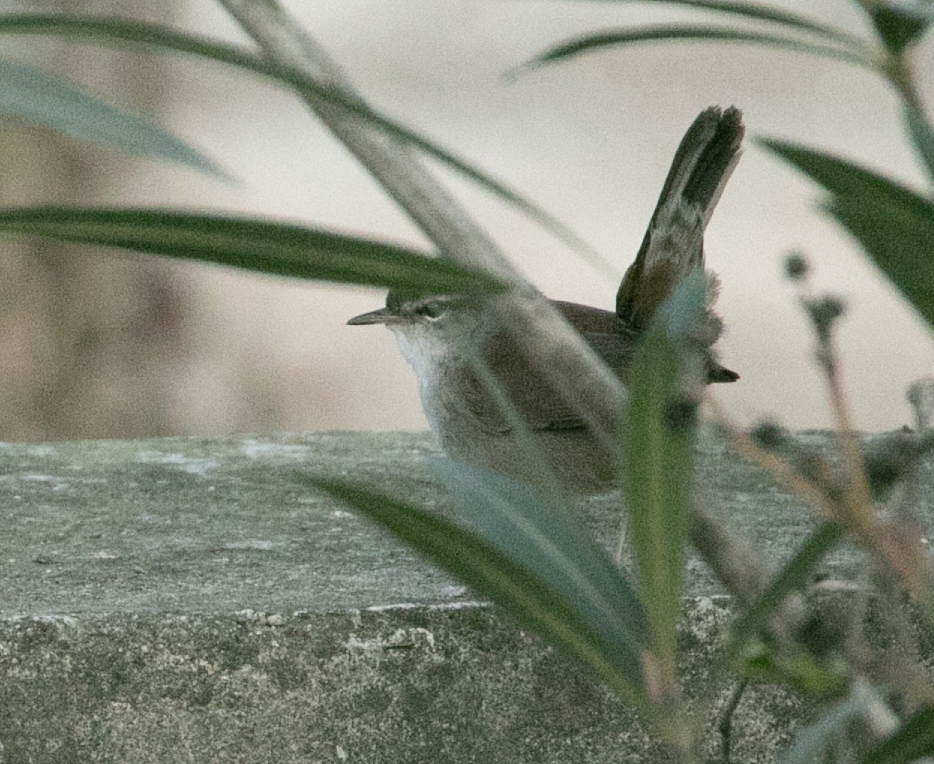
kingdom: Animalia
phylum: Chordata
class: Aves
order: Passeriformes
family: Cettiidae
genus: Cettia
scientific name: Cettia cetti
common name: Cetti's warbler
